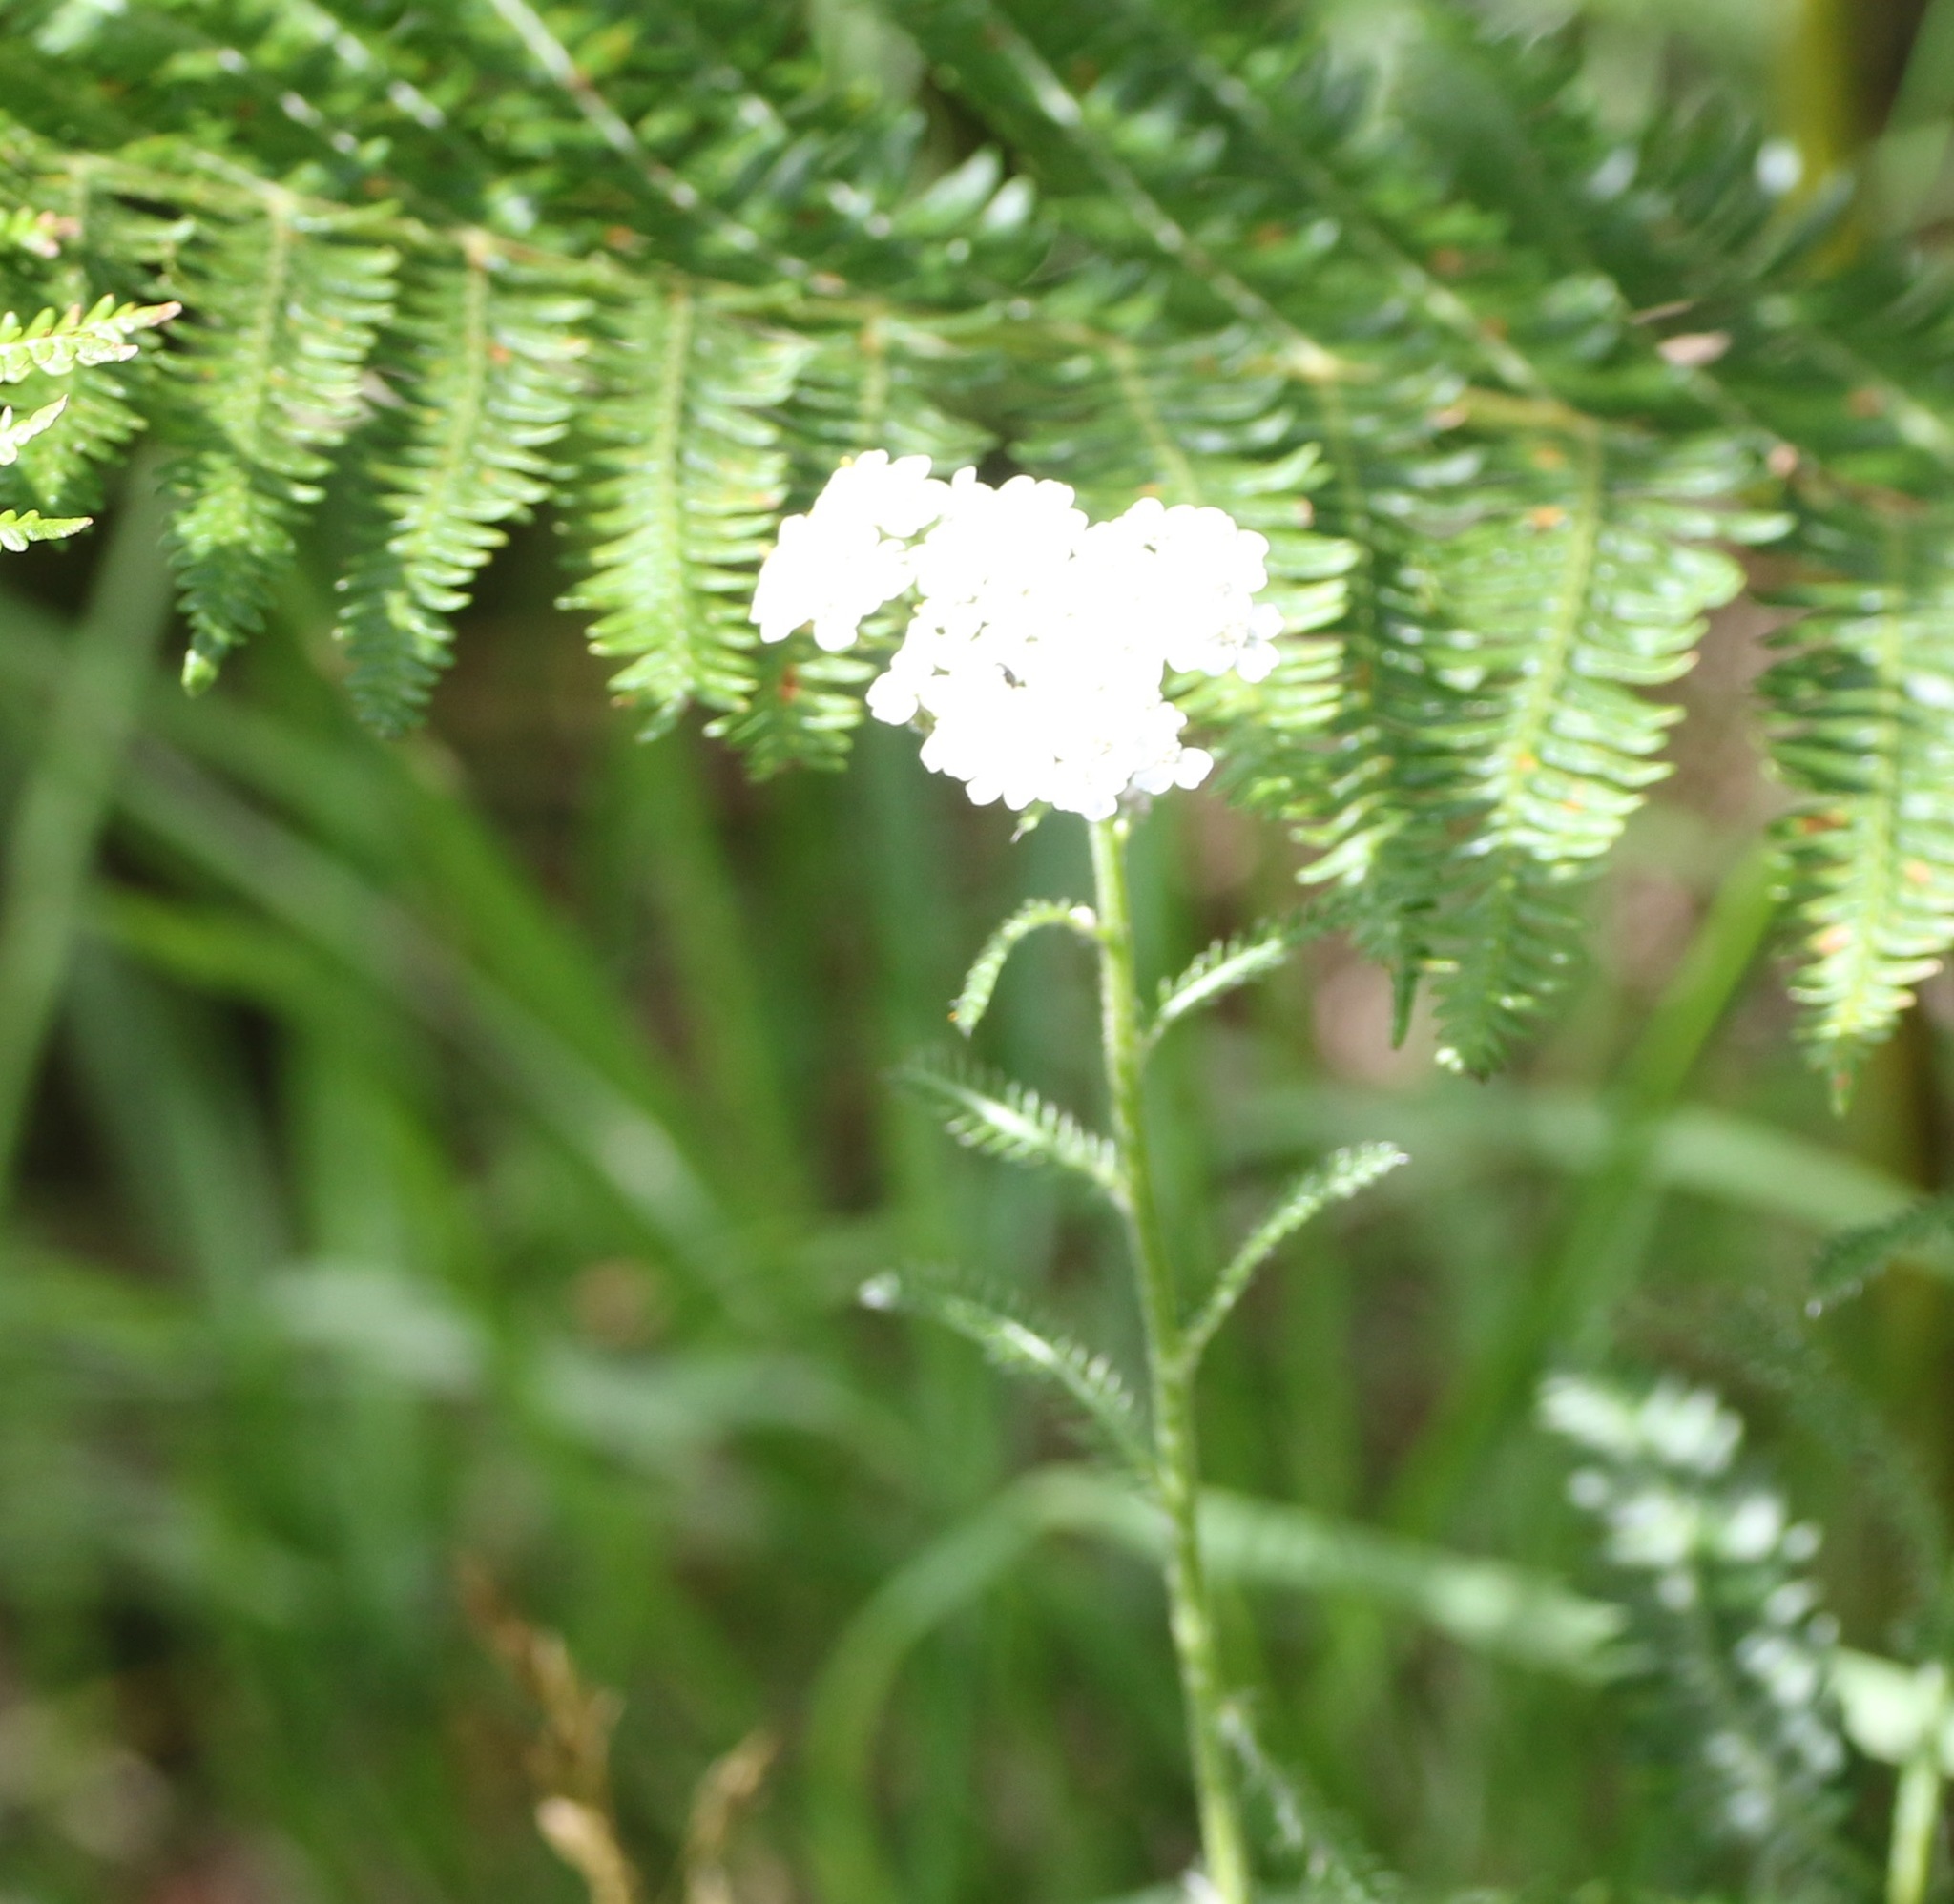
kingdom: Plantae
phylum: Tracheophyta
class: Magnoliopsida
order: Asterales
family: Asteraceae
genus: Achillea
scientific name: Achillea millefolium
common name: Yarrow
